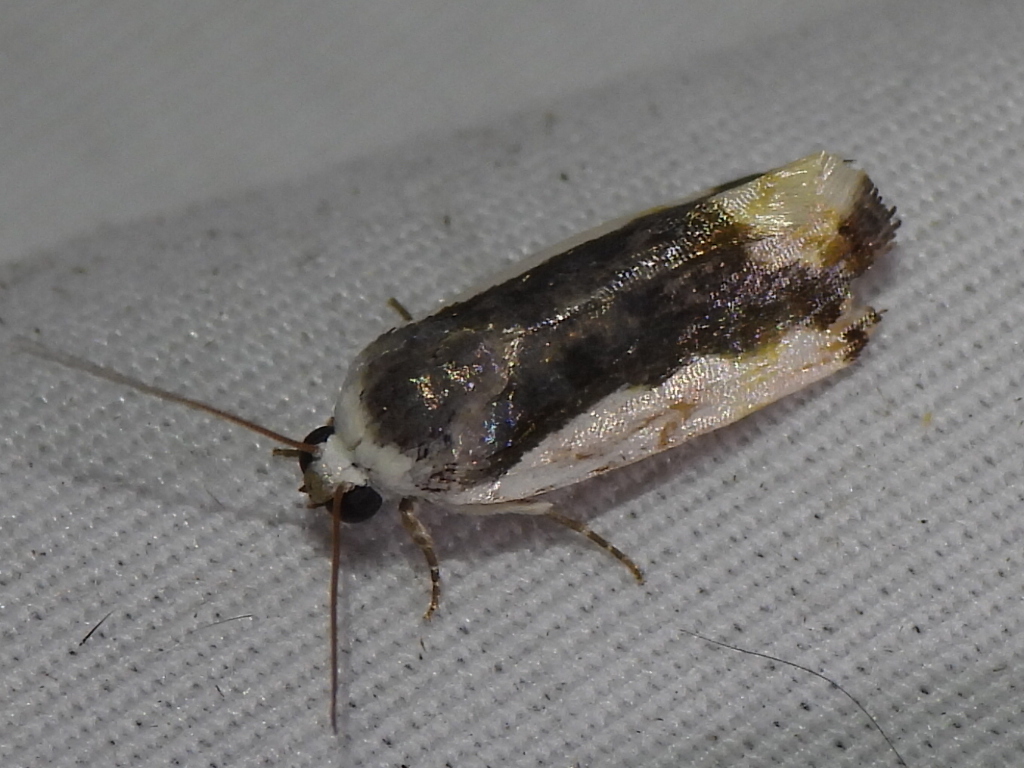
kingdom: Animalia
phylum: Arthropoda
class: Insecta
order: Lepidoptera
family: Noctuidae
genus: Acontia
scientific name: Acontia Tarache expolita
